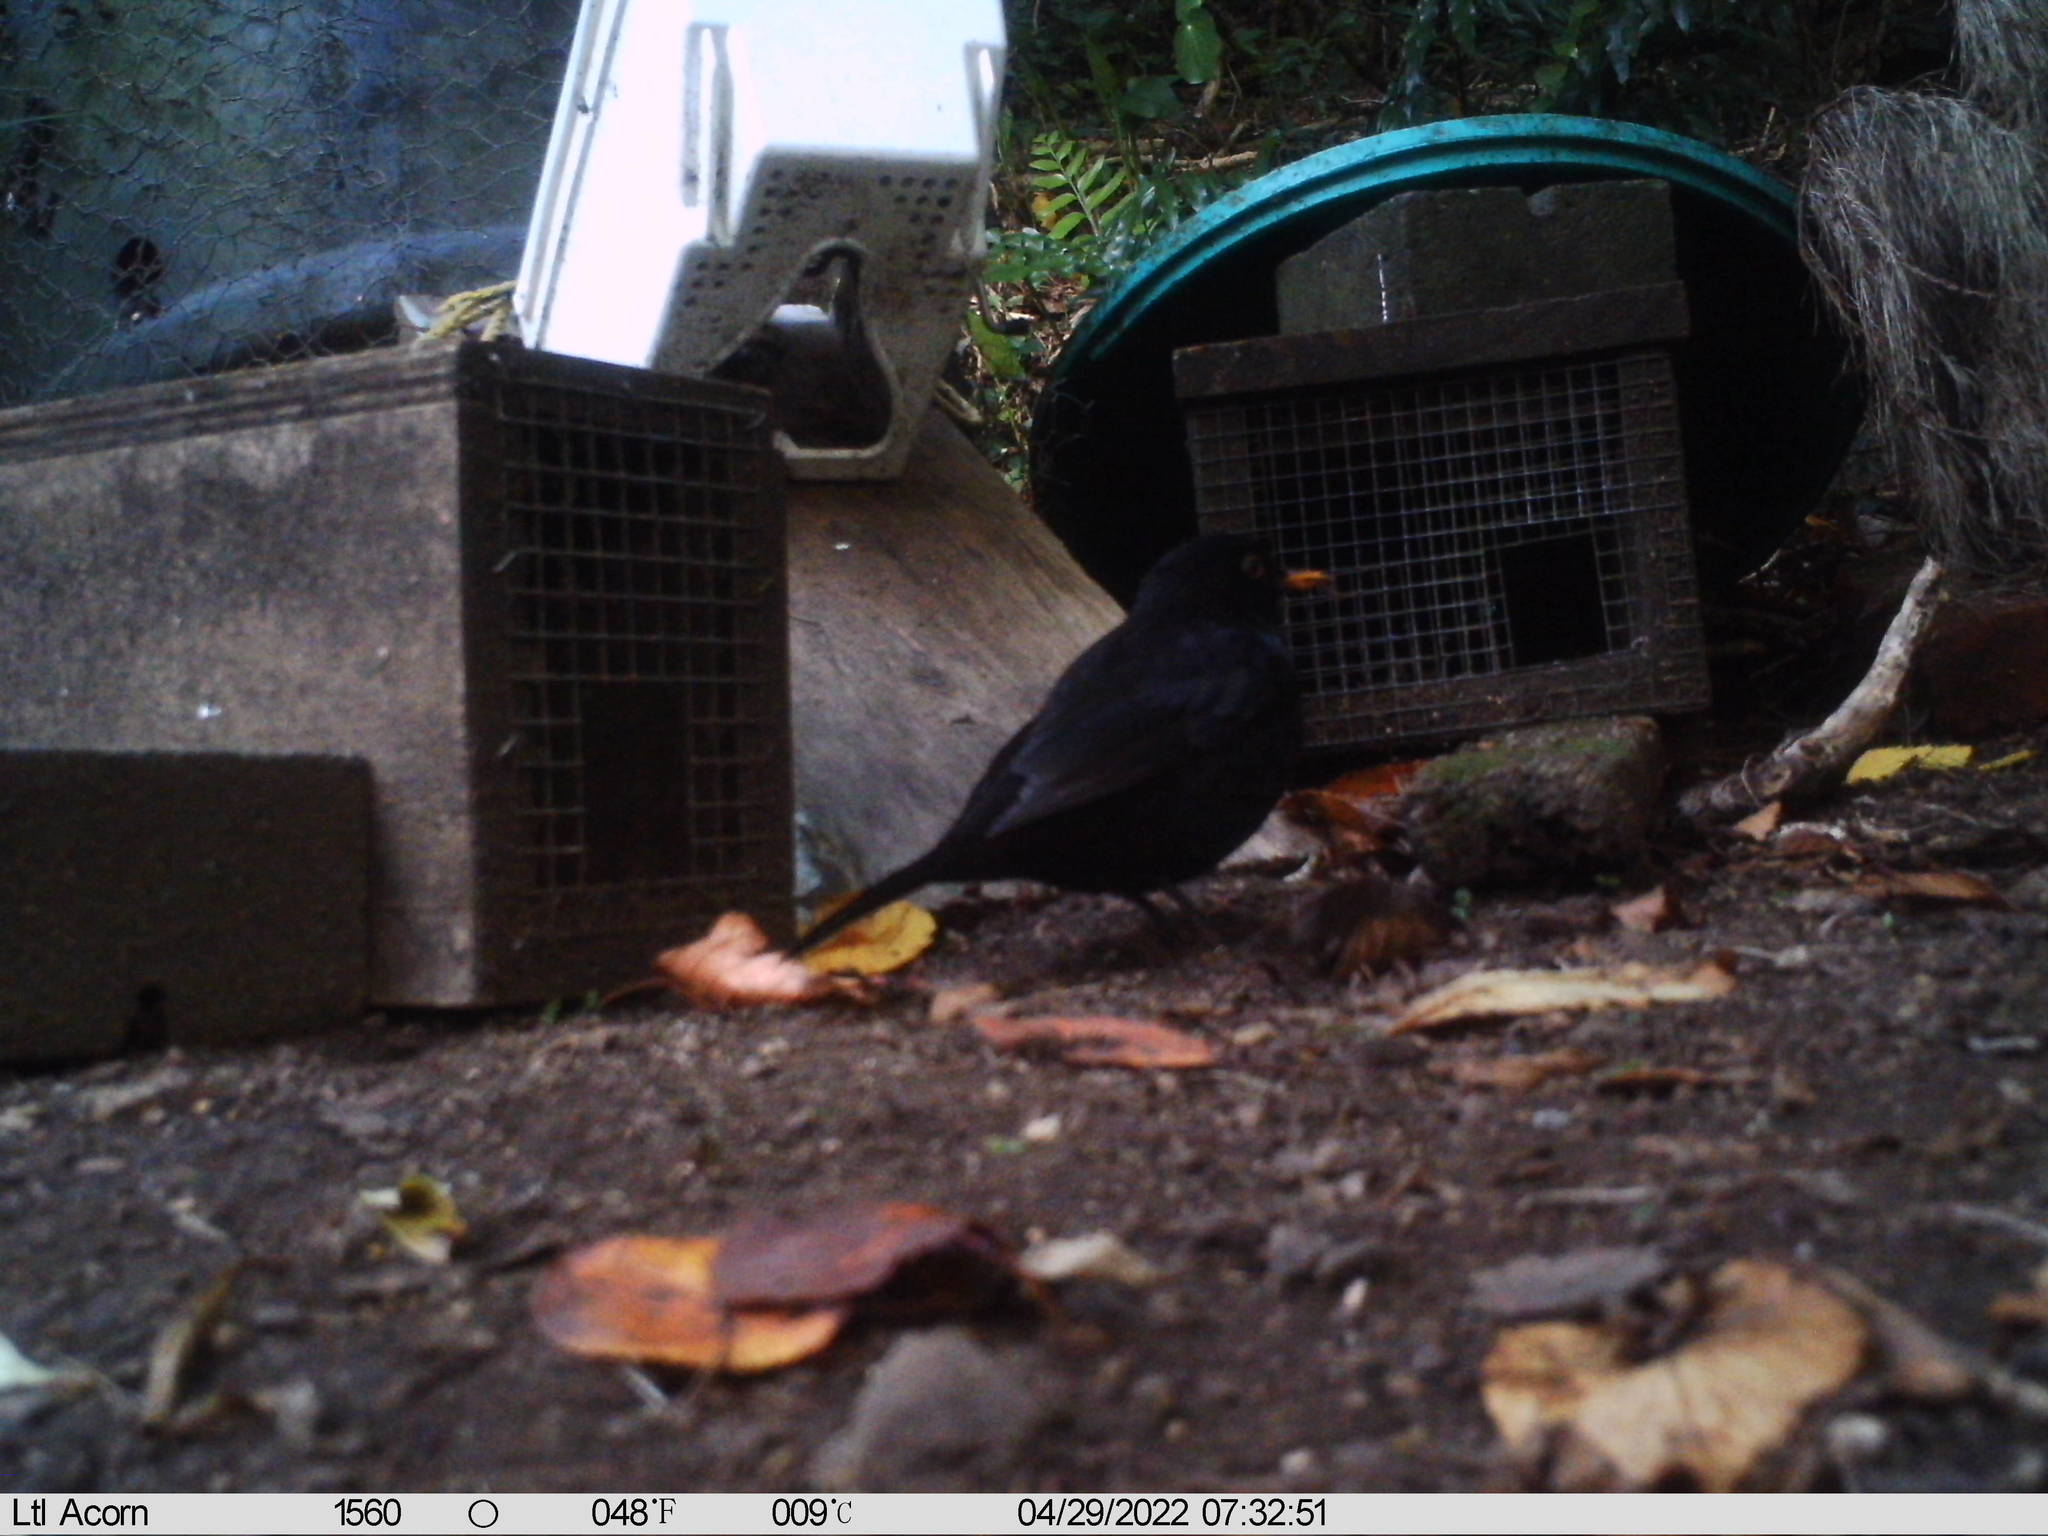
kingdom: Animalia
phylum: Chordata
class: Aves
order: Passeriformes
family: Turdidae
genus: Turdus
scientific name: Turdus merula
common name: Common blackbird
